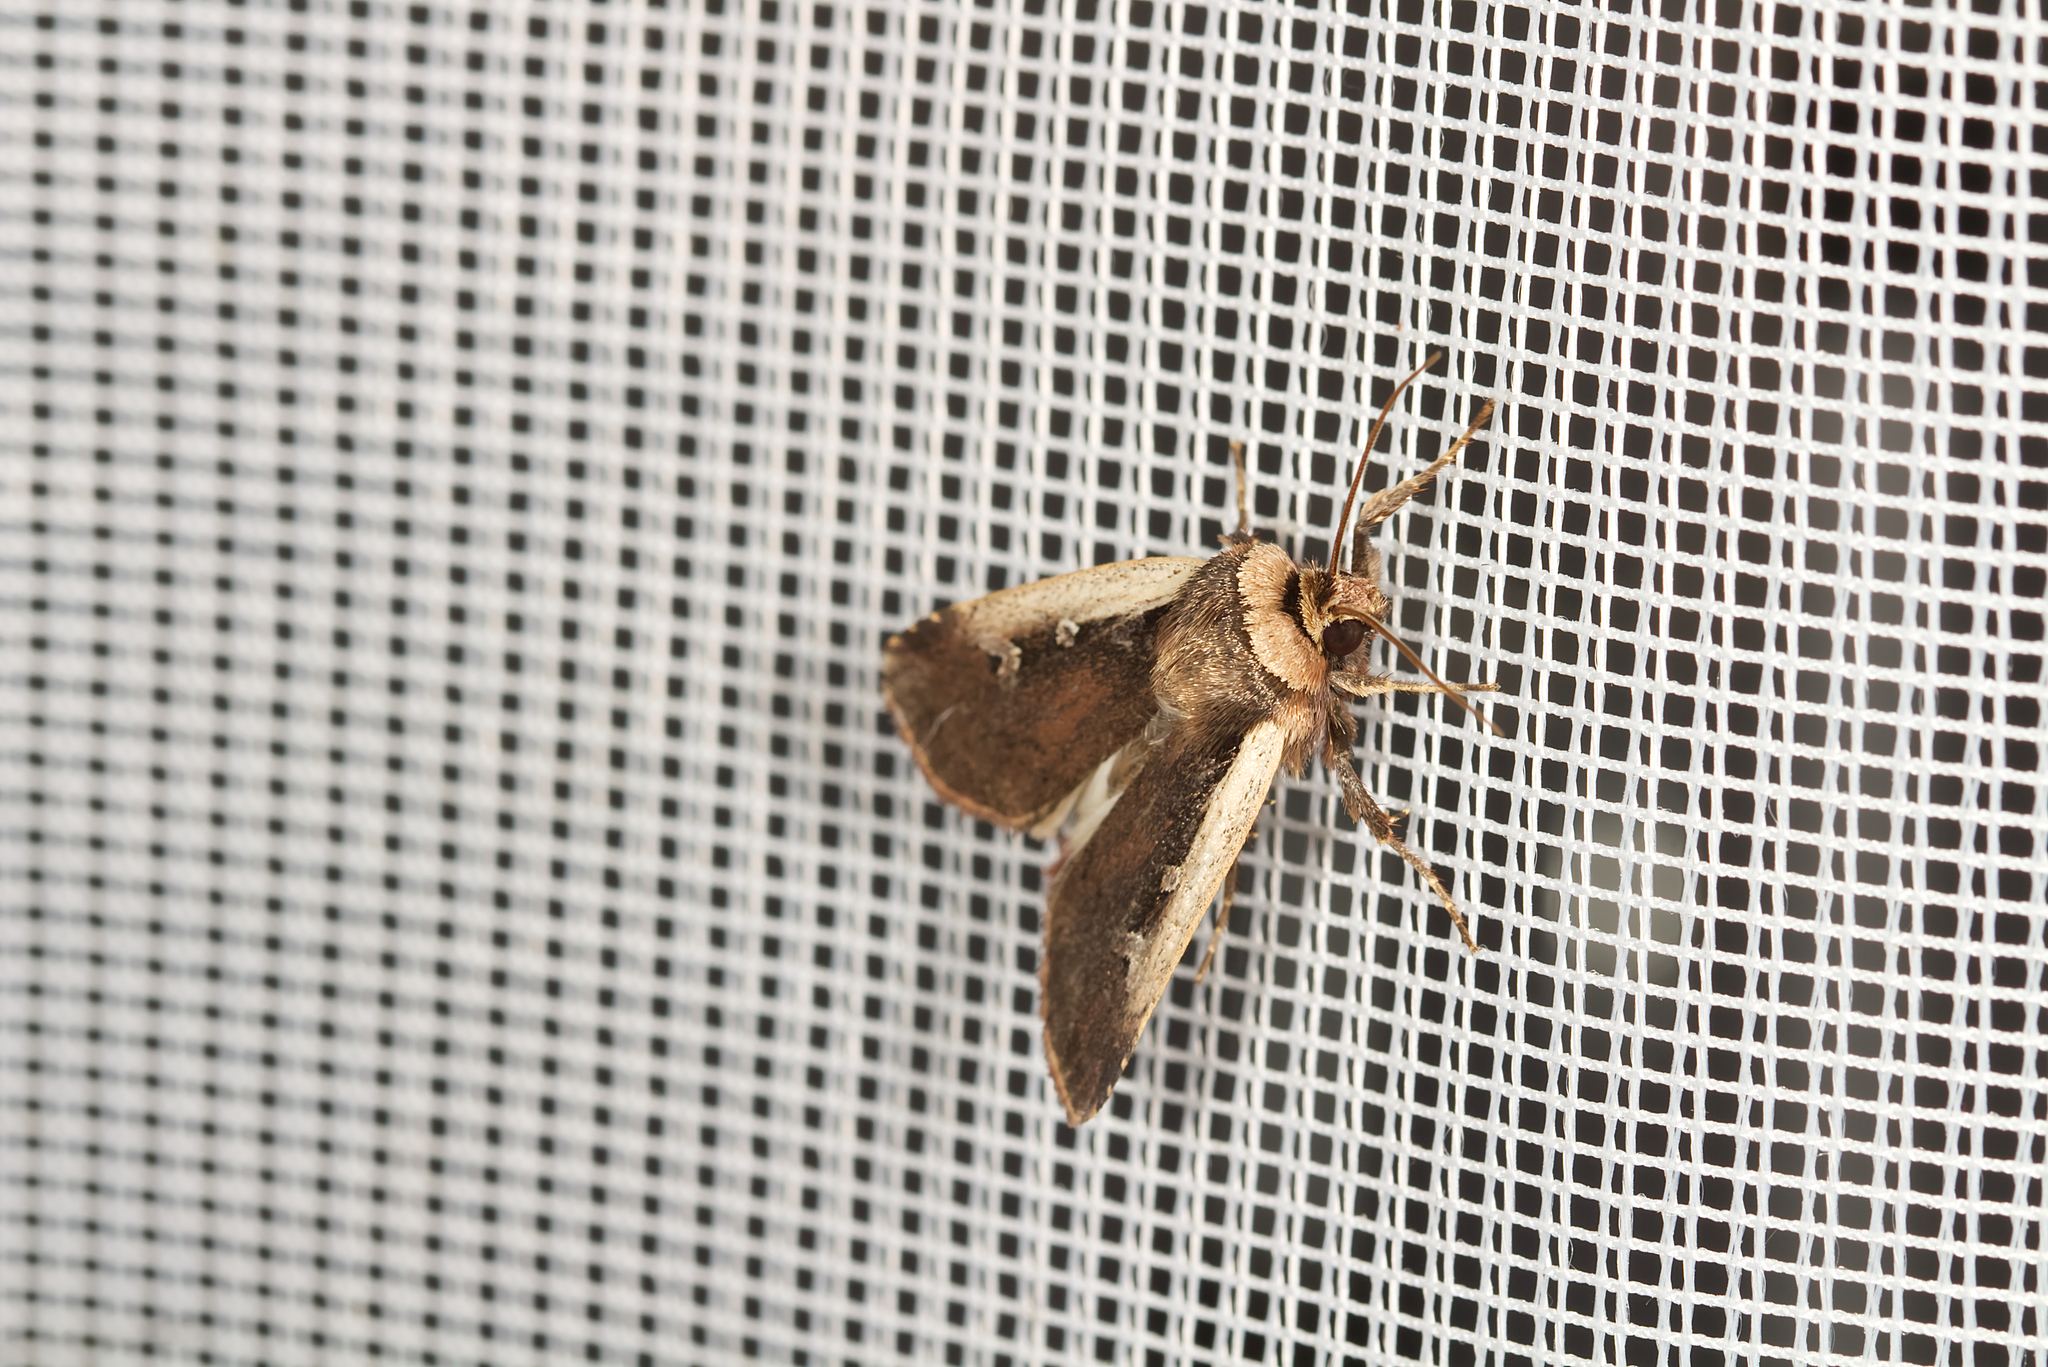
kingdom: Animalia
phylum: Arthropoda
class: Insecta
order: Lepidoptera
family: Noctuidae
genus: Ochropleura
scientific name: Ochropleura plecta
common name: Flame shoulder
